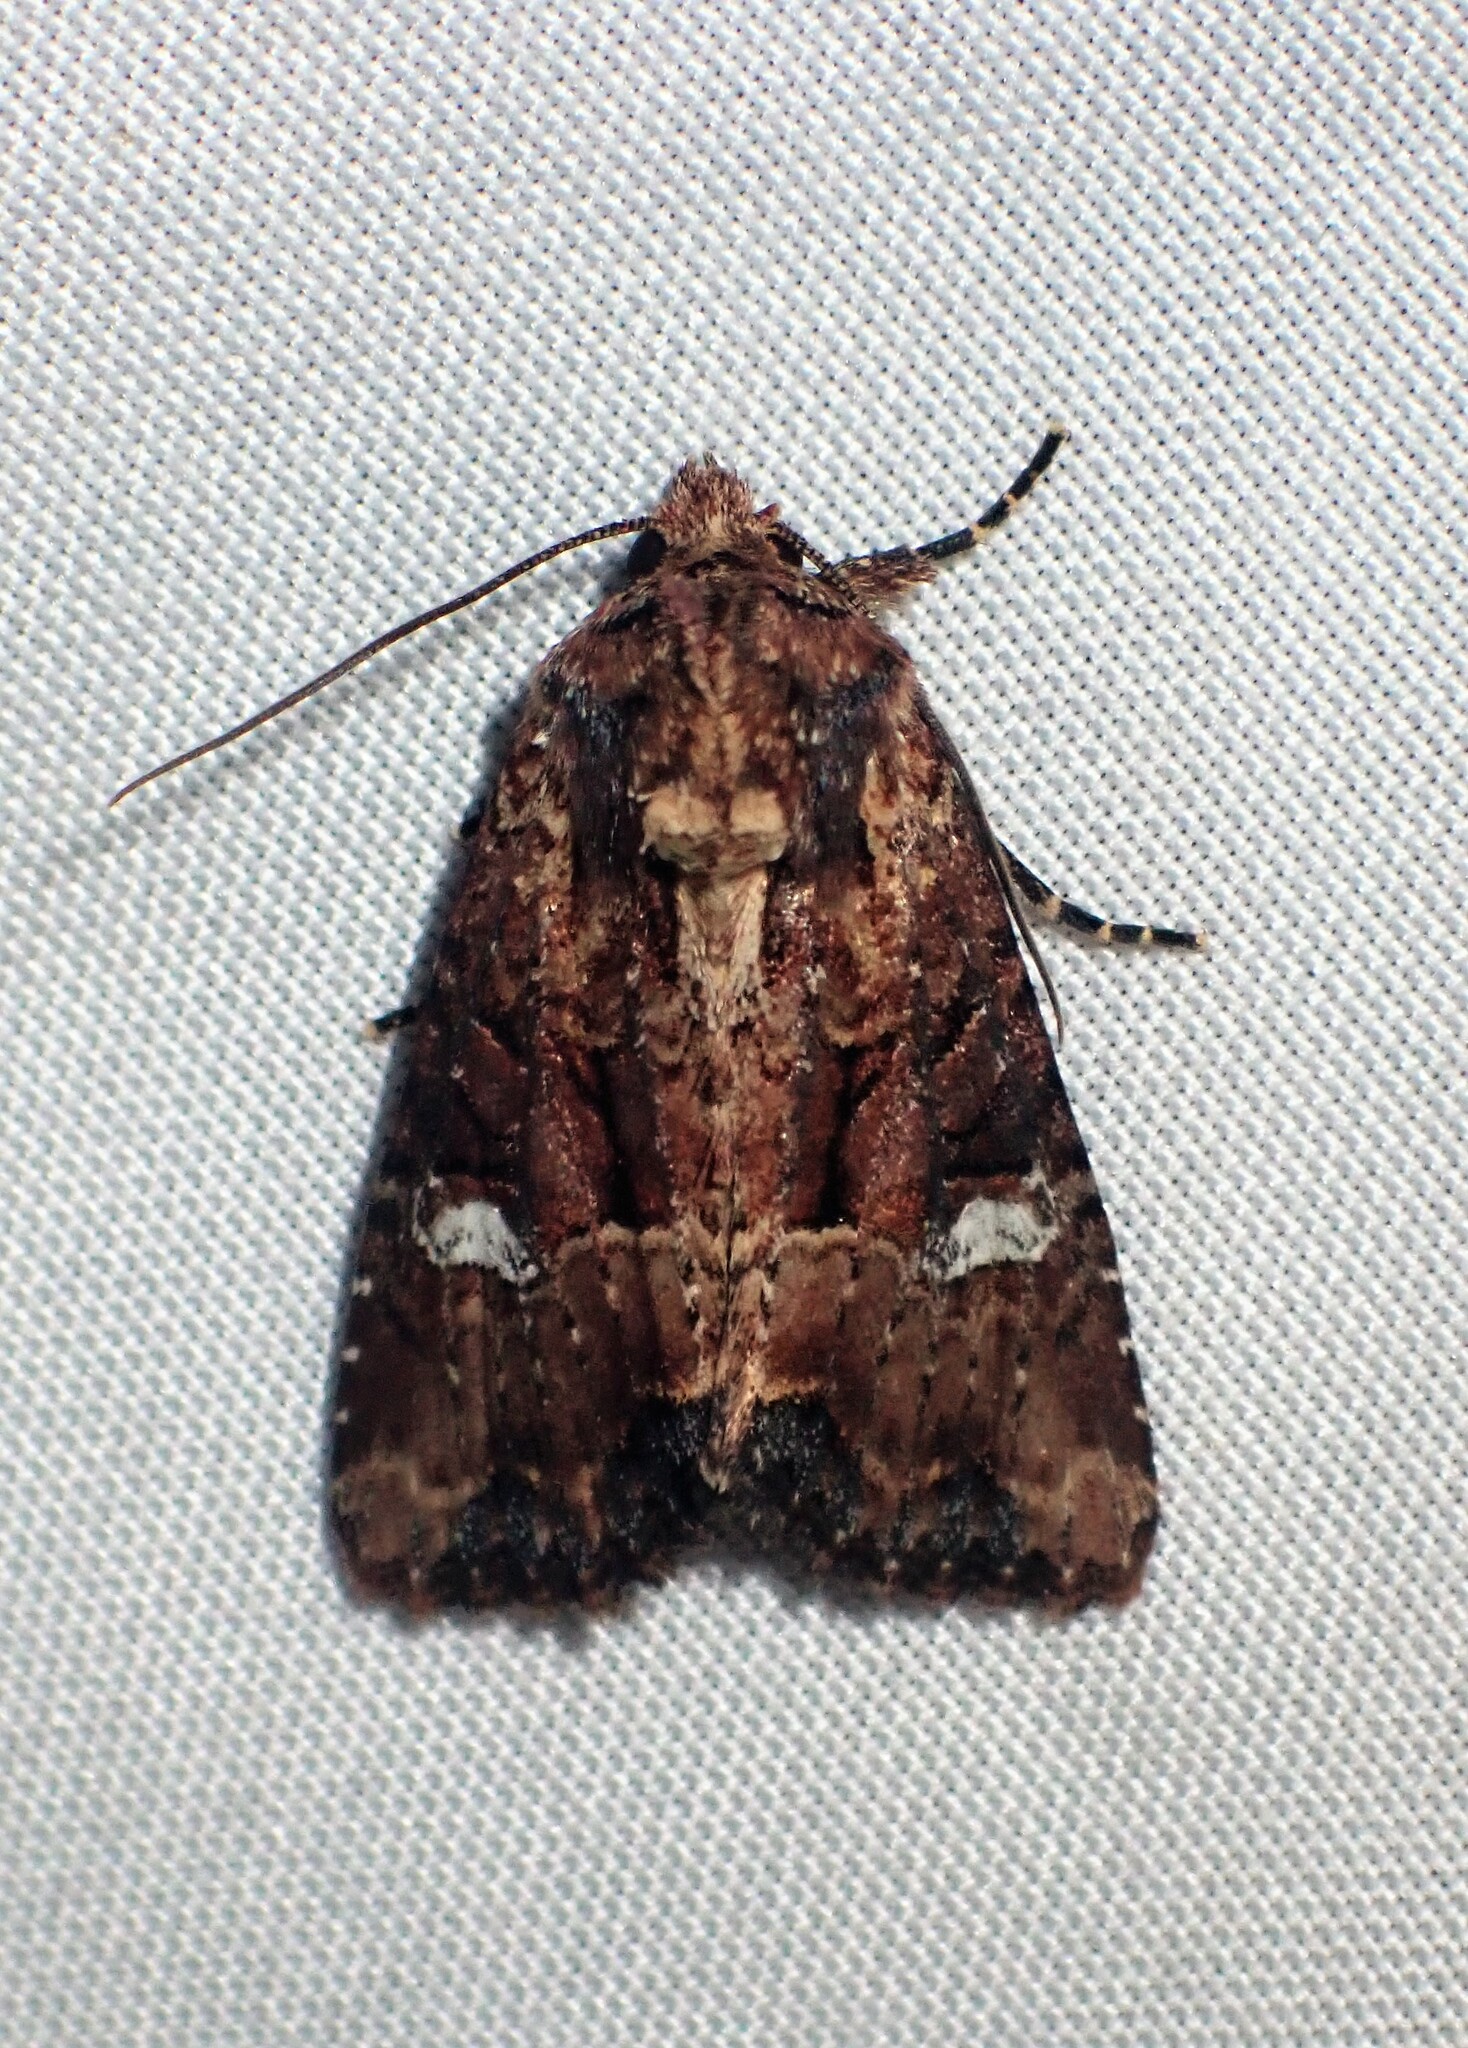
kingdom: Animalia
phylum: Arthropoda
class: Insecta
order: Lepidoptera
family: Noctuidae
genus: Mesapamea
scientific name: Mesapamea storai
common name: Owlet moth
